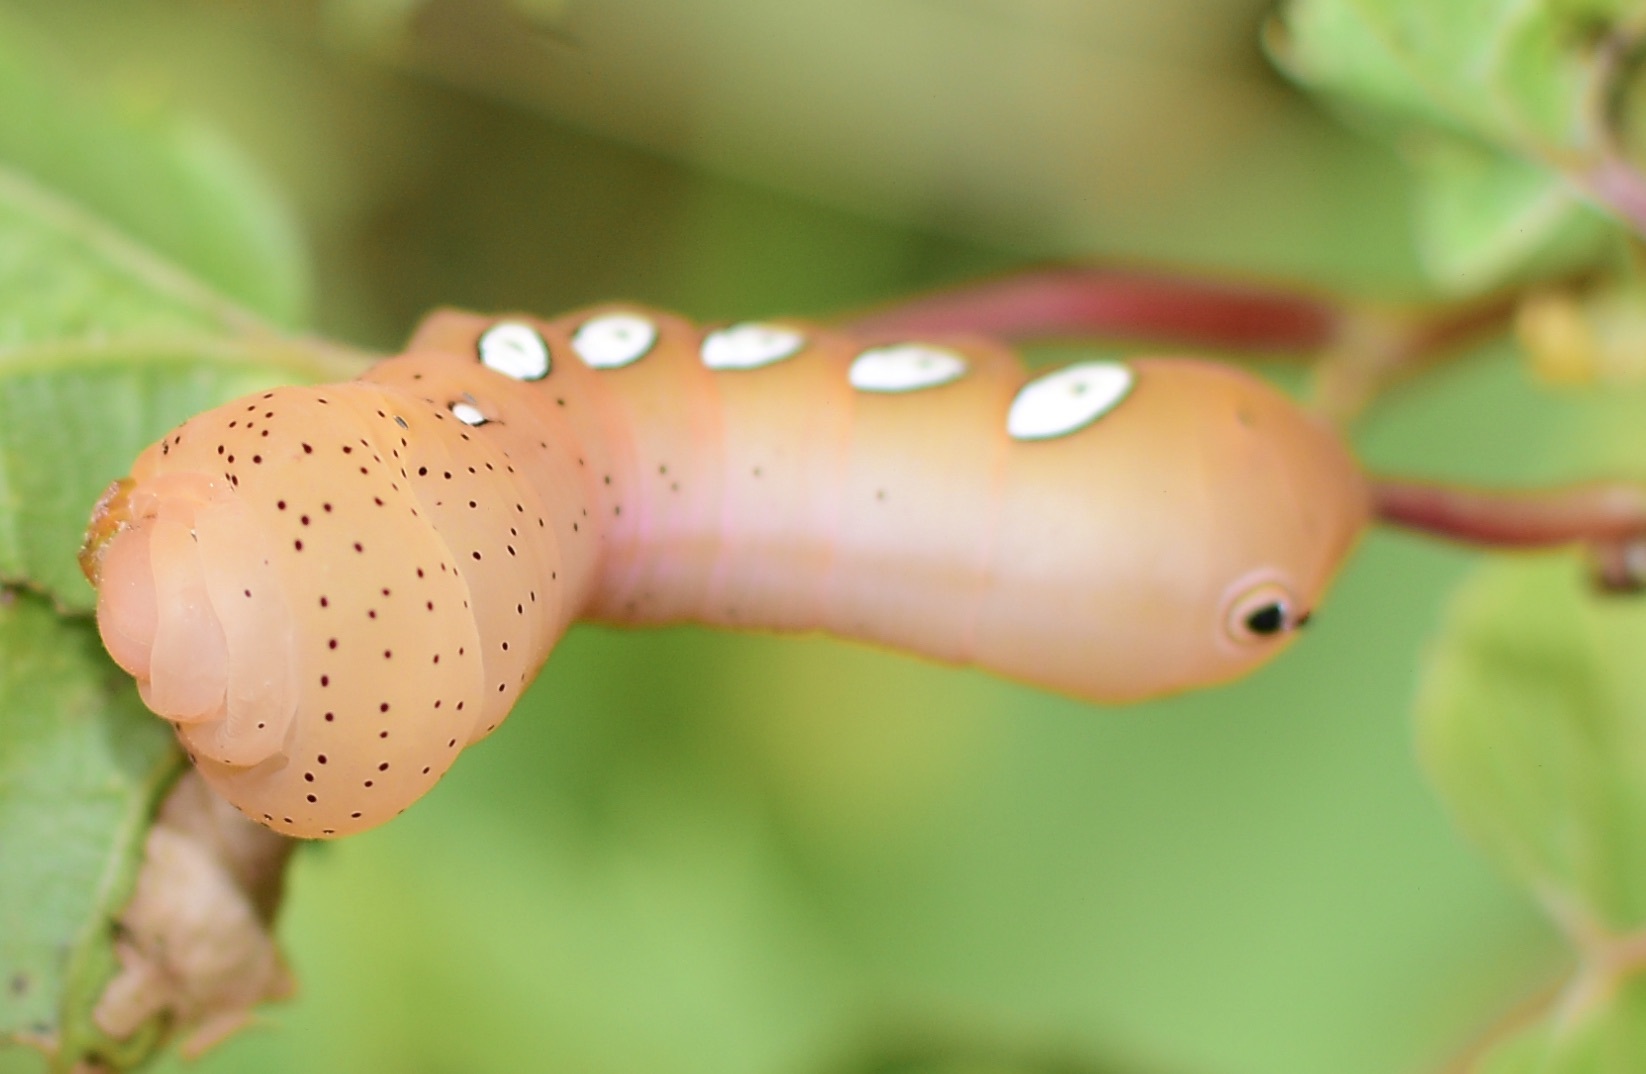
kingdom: Animalia
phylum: Arthropoda
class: Insecta
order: Lepidoptera
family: Sphingidae
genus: Eumorpha
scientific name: Eumorpha pandorus
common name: Pandora sphinx
